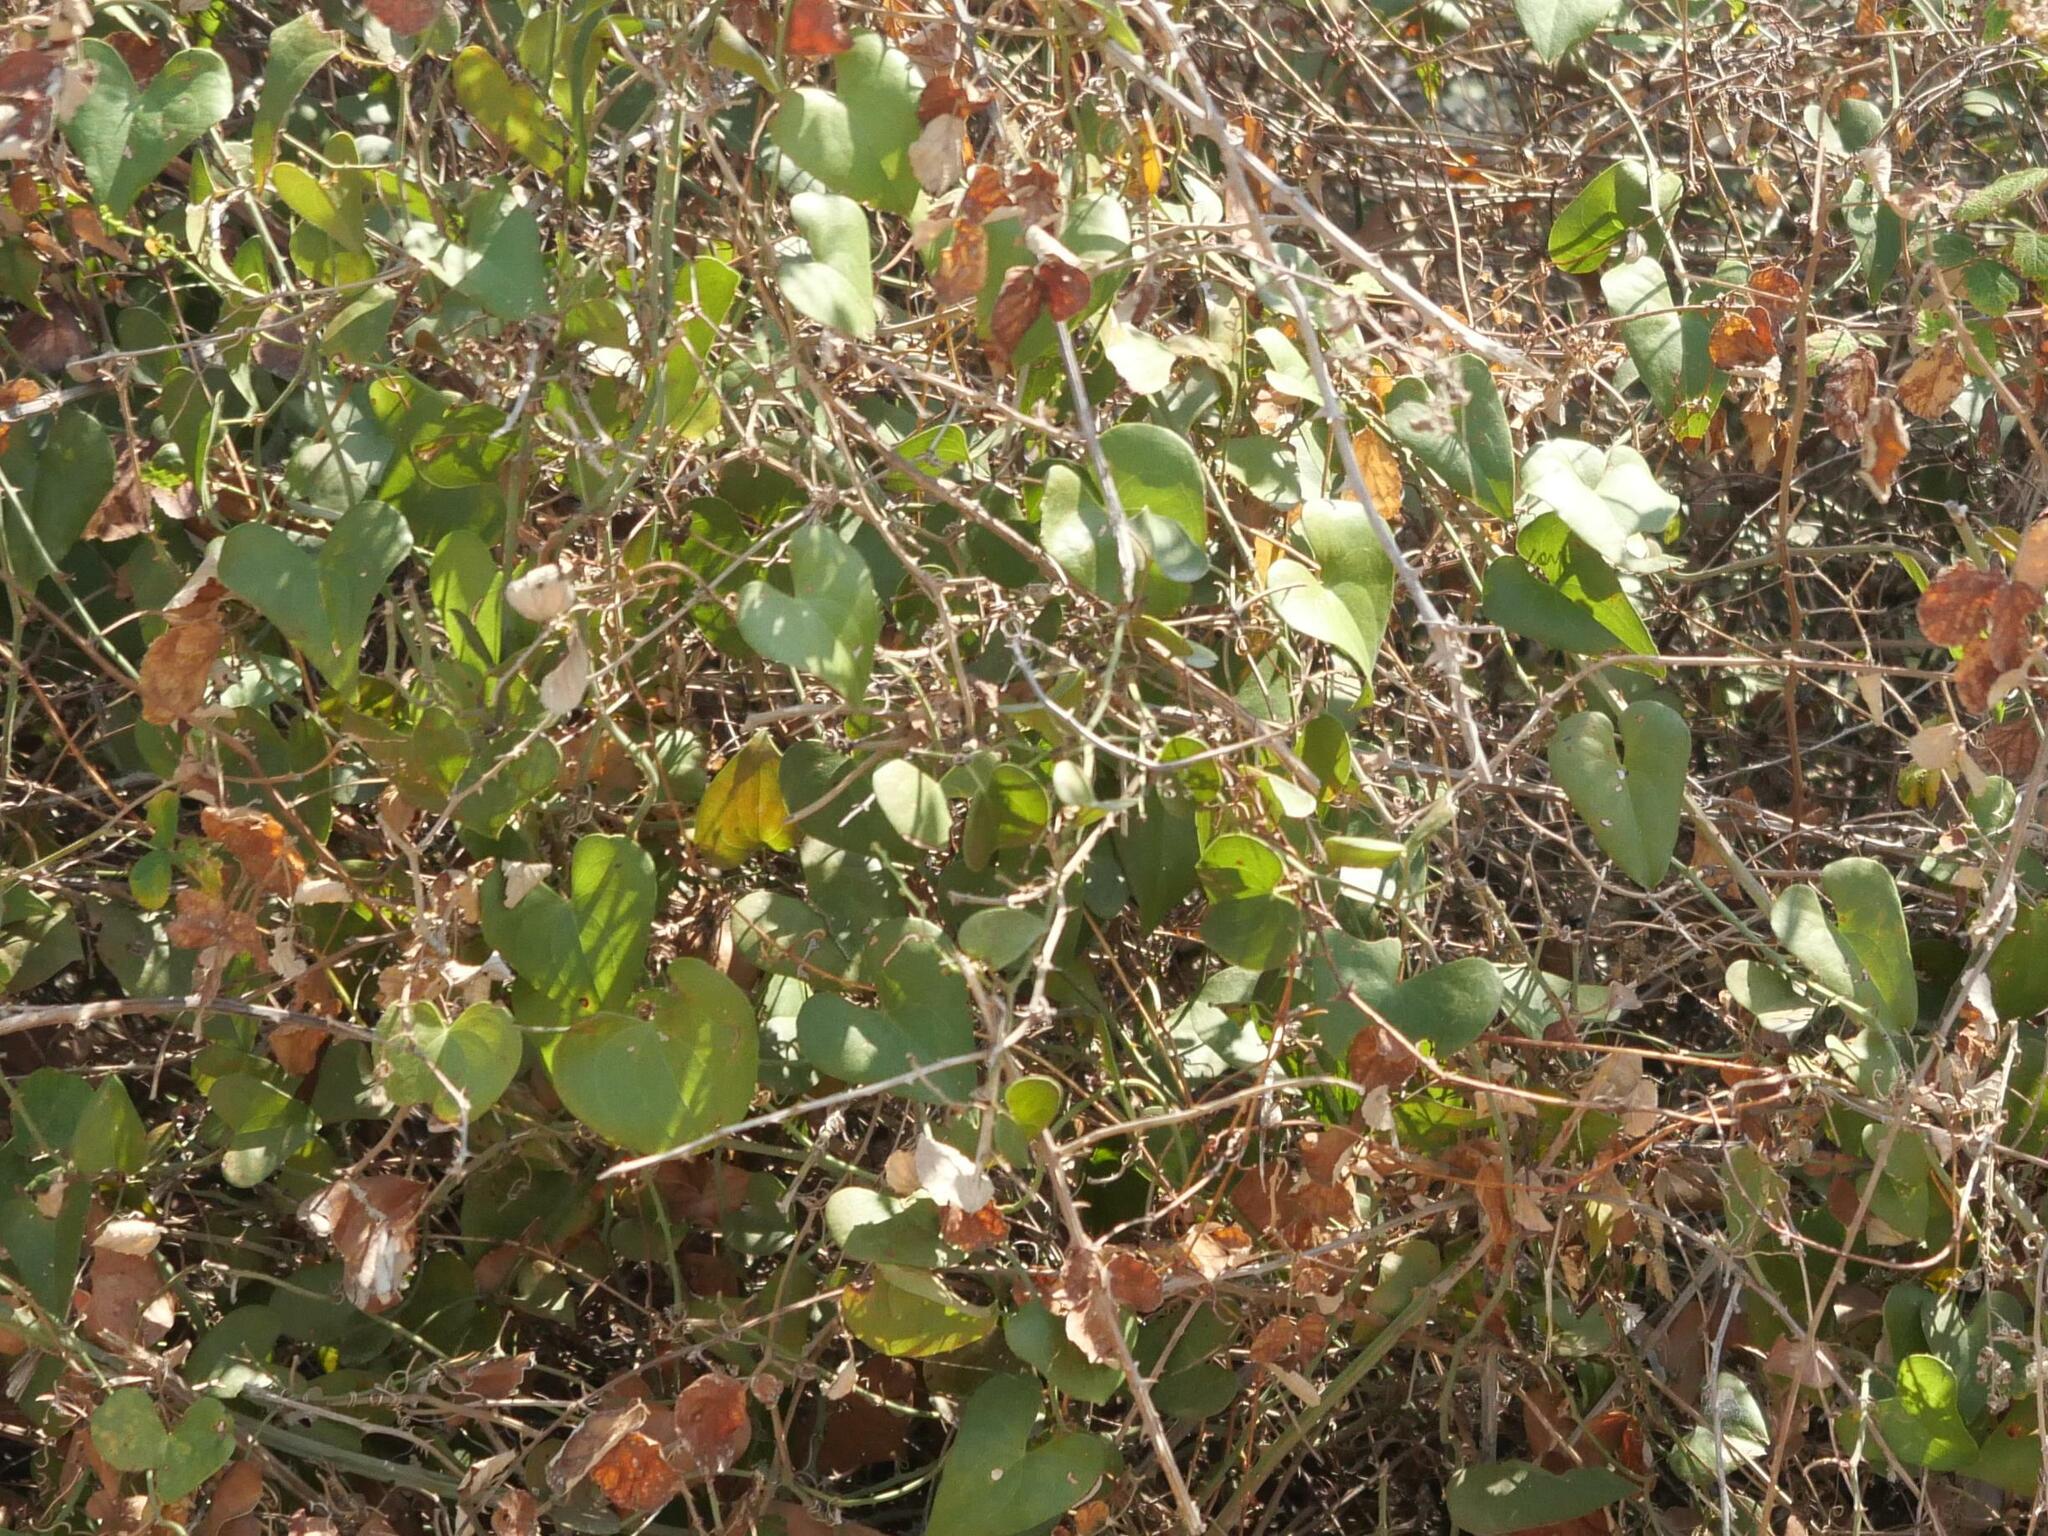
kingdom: Plantae
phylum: Tracheophyta
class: Liliopsida
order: Liliales
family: Smilacaceae
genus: Smilax
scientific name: Smilax aspera
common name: Common smilax
